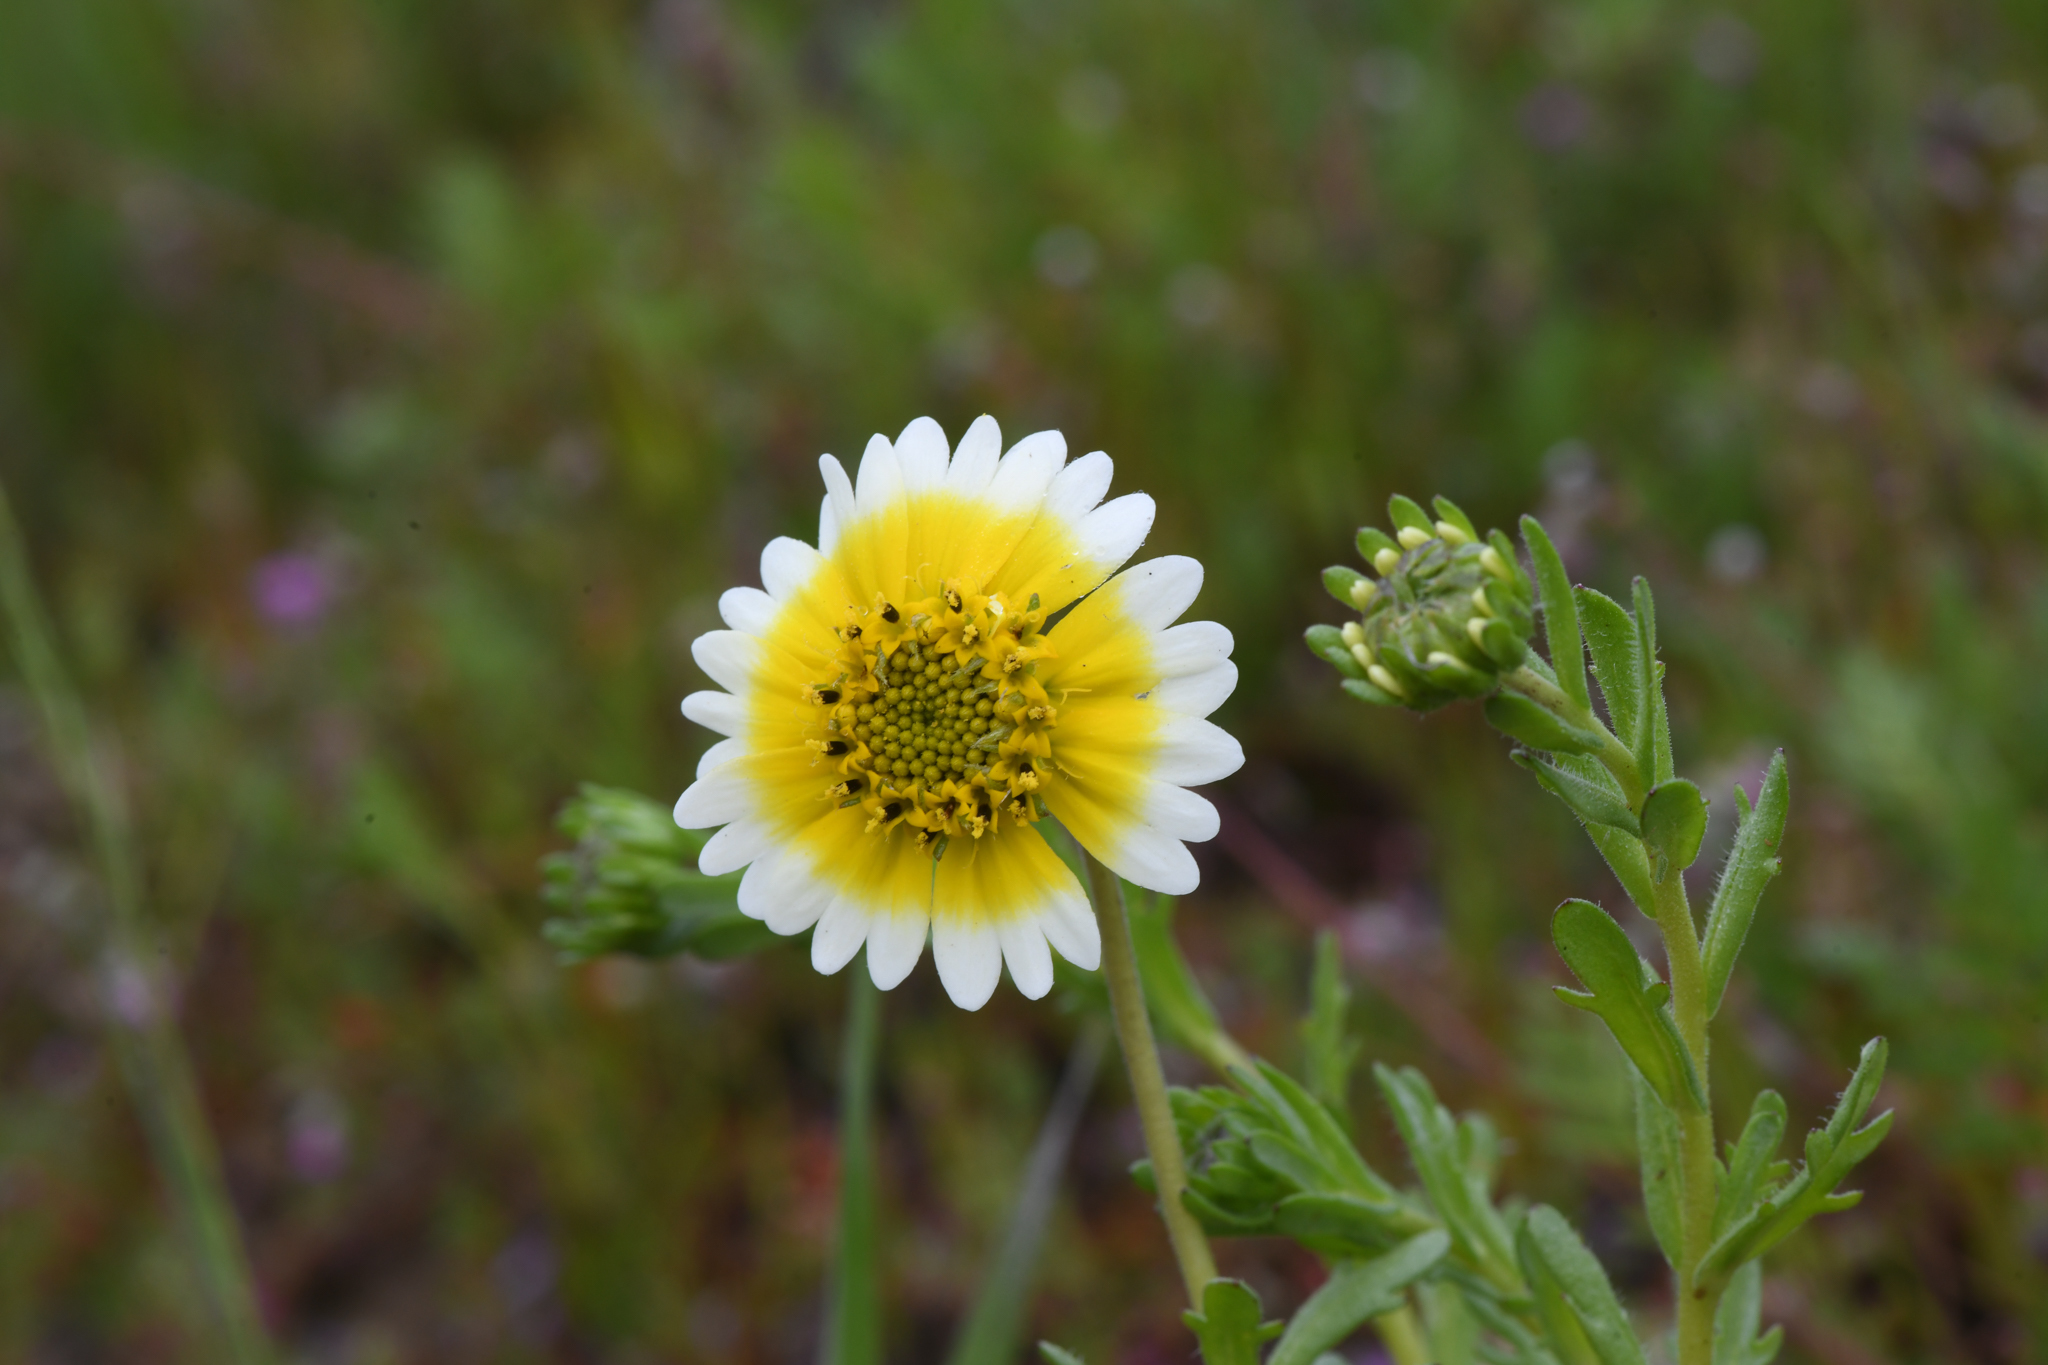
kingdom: Plantae
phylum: Tracheophyta
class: Magnoliopsida
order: Asterales
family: Asteraceae
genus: Layia
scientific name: Layia munzii
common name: Munz's tidy-tips
